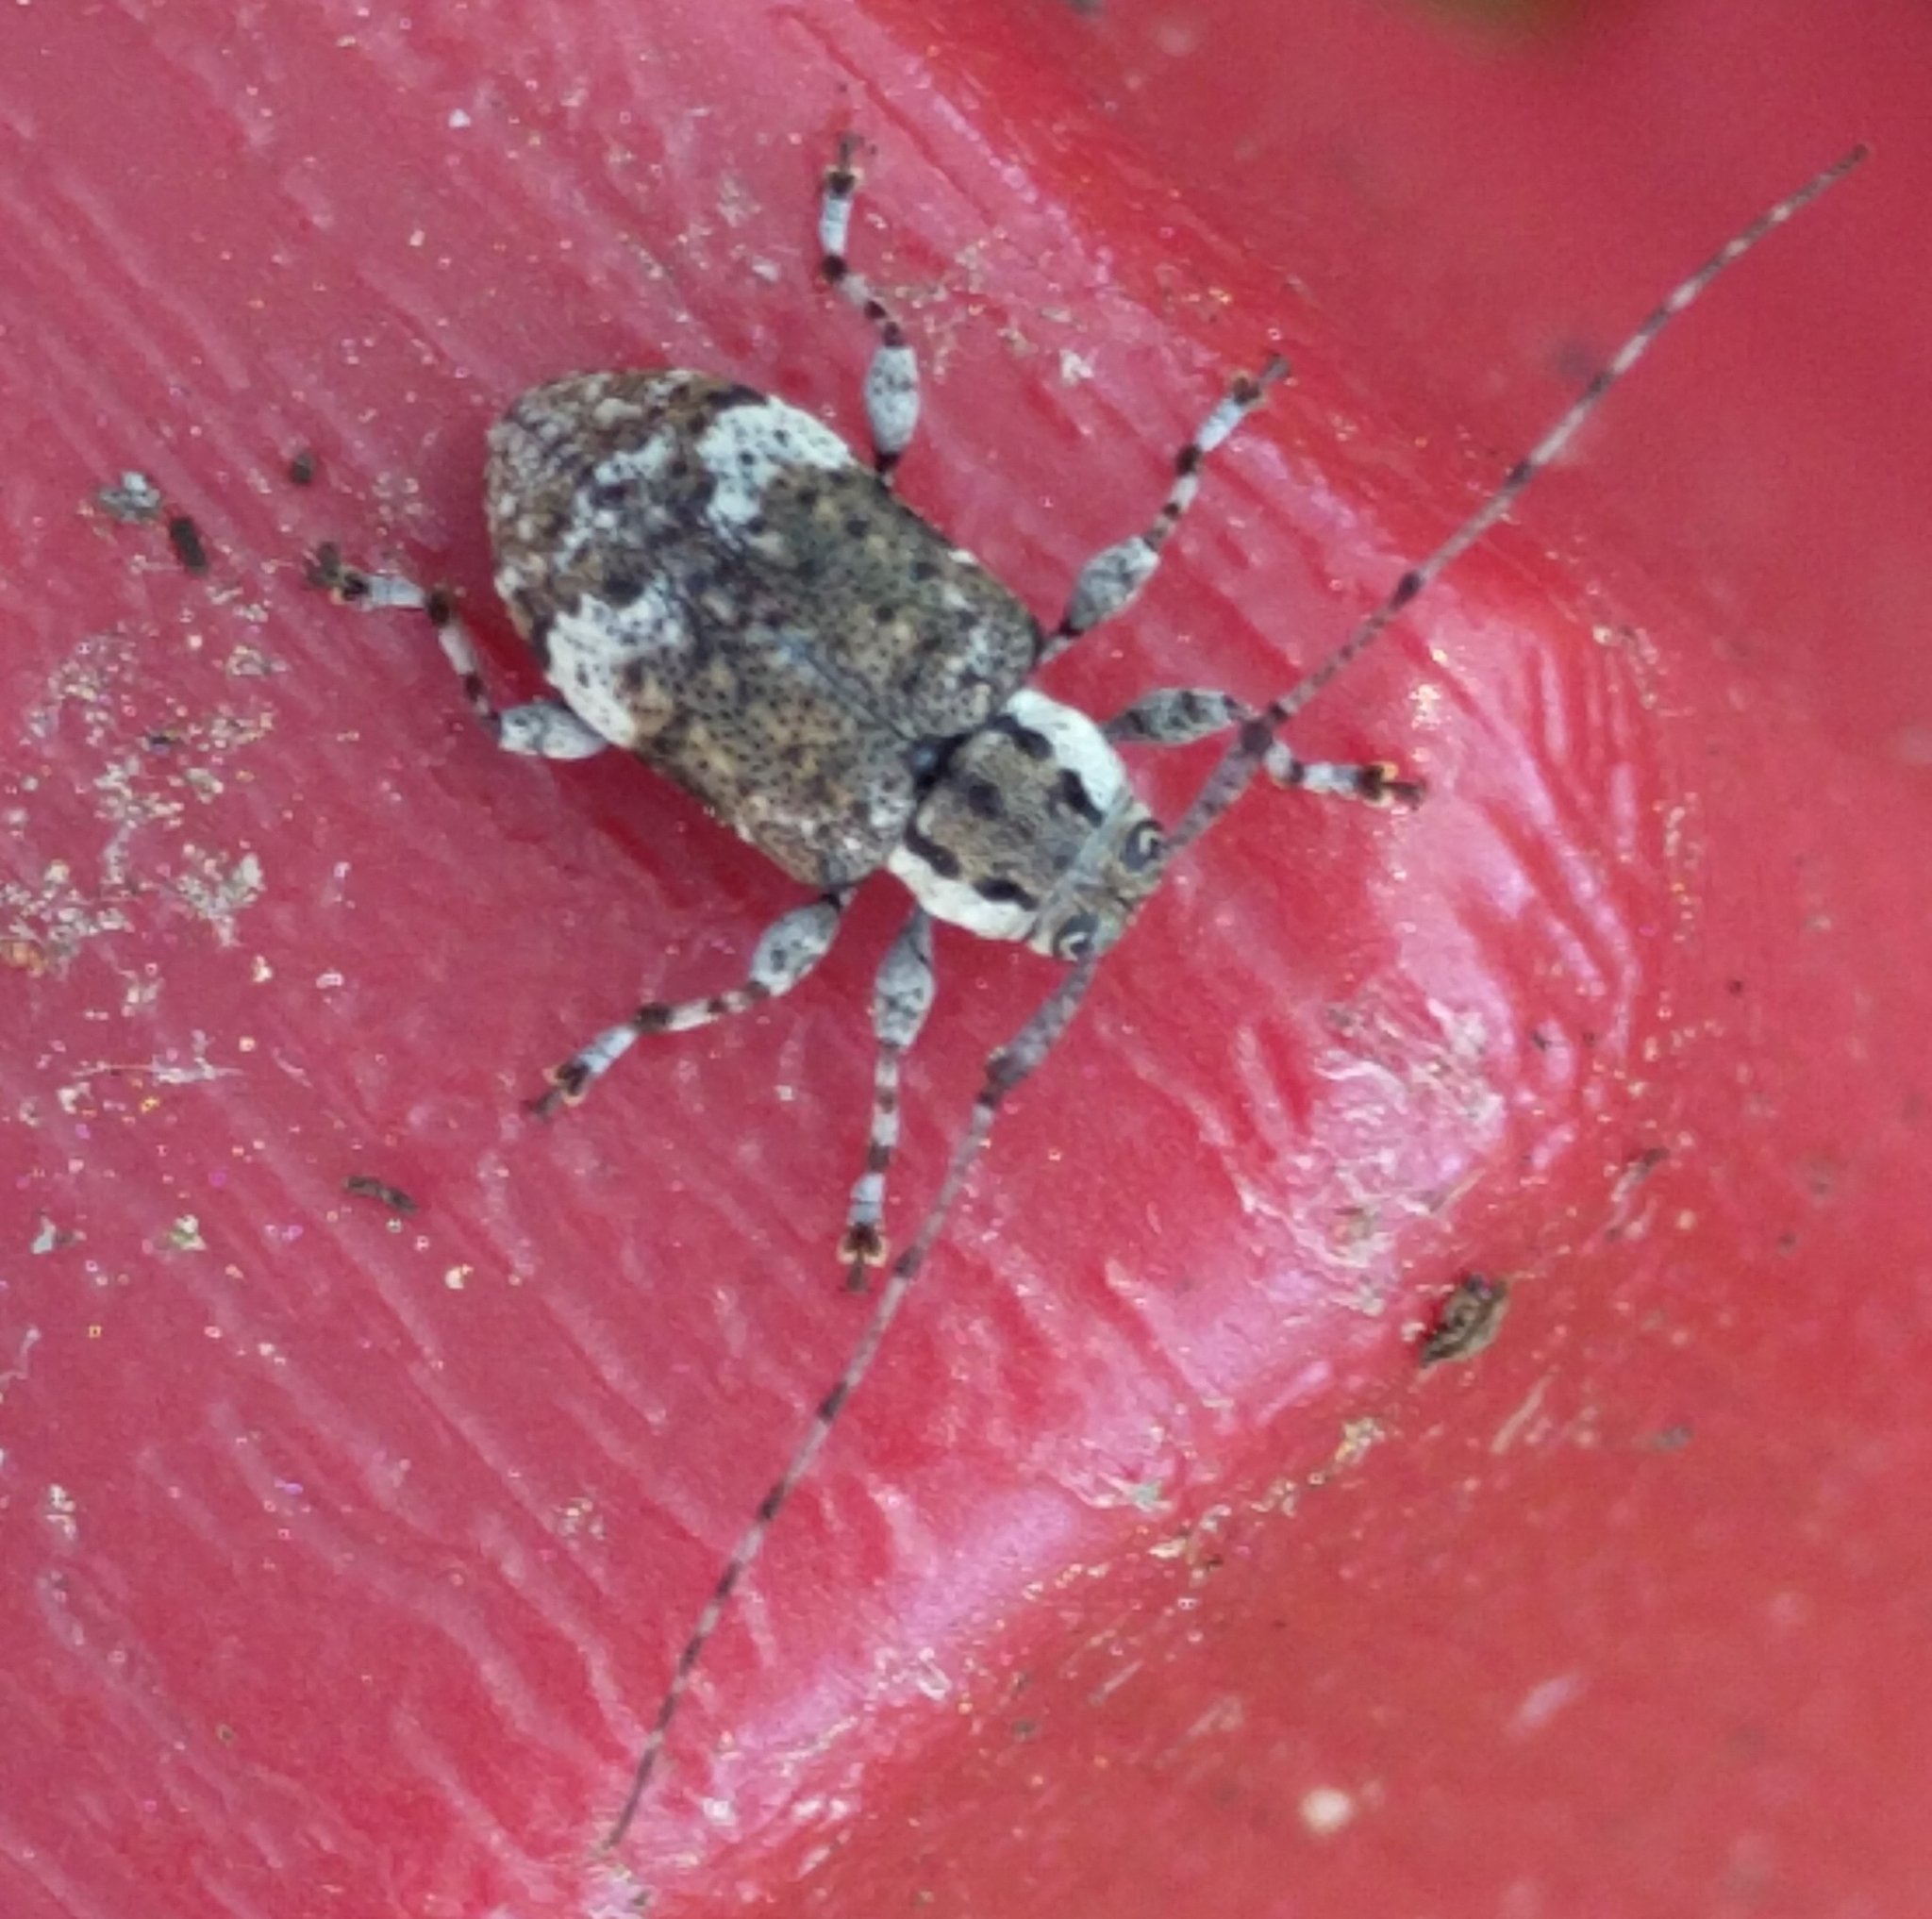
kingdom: Animalia
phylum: Arthropoda
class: Insecta
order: Coleoptera
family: Cerambycidae
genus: Astylopsis
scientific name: Astylopsis macula
